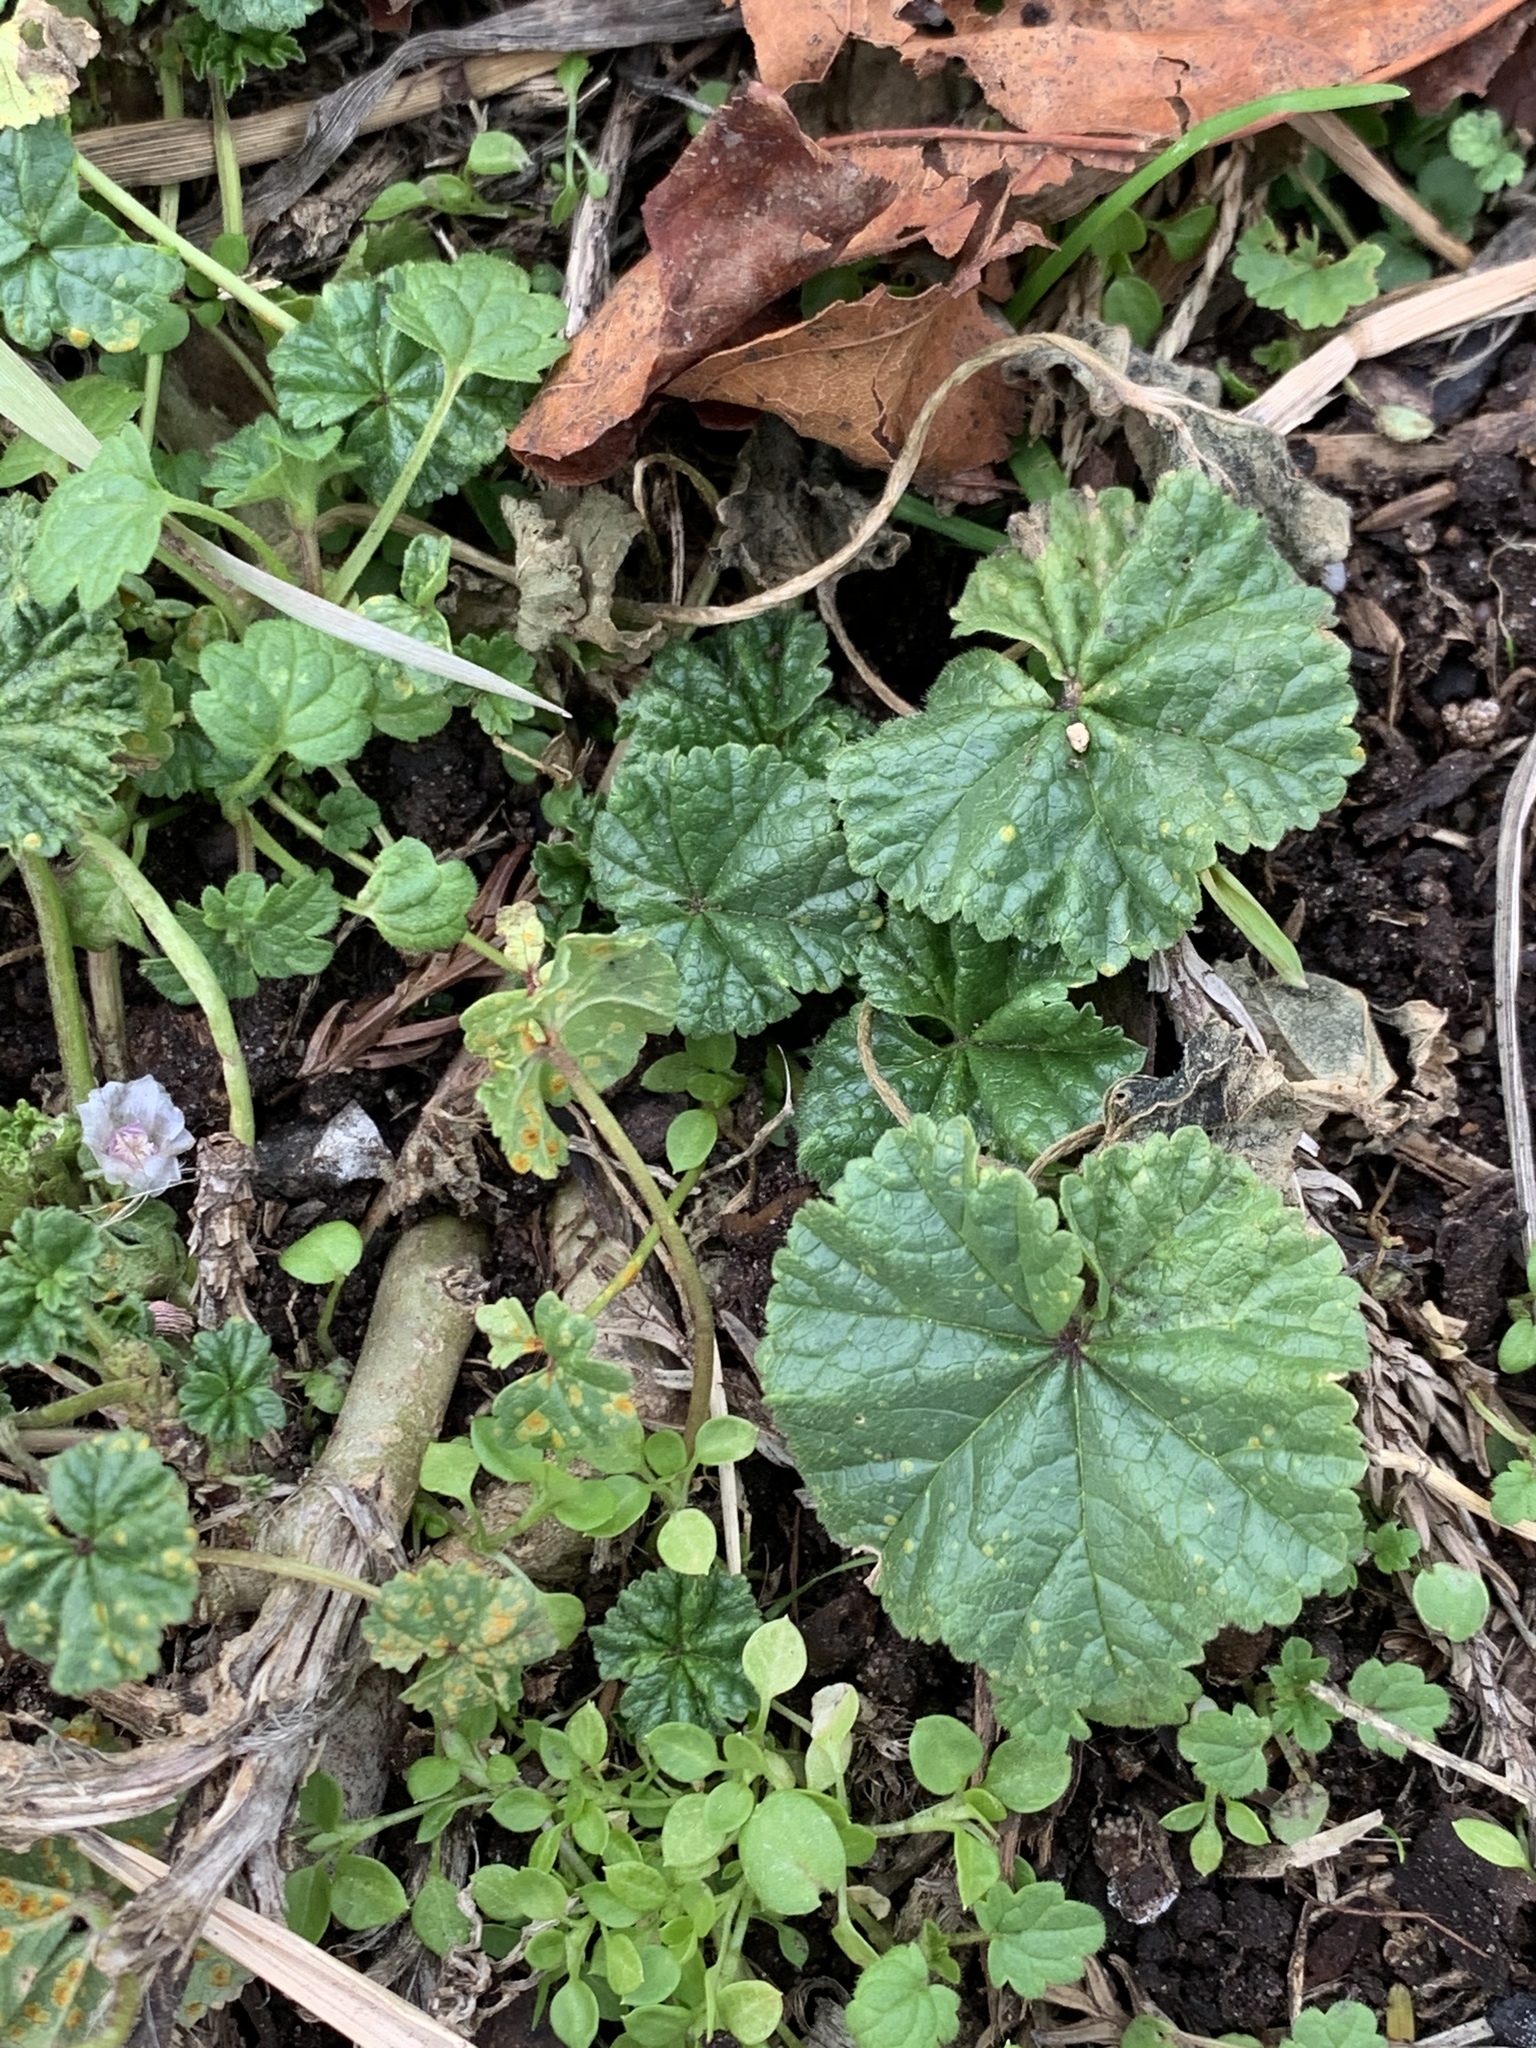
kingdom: Plantae
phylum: Tracheophyta
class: Magnoliopsida
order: Malvales
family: Malvaceae
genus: Malva
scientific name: Malva neglecta
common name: Common mallow
